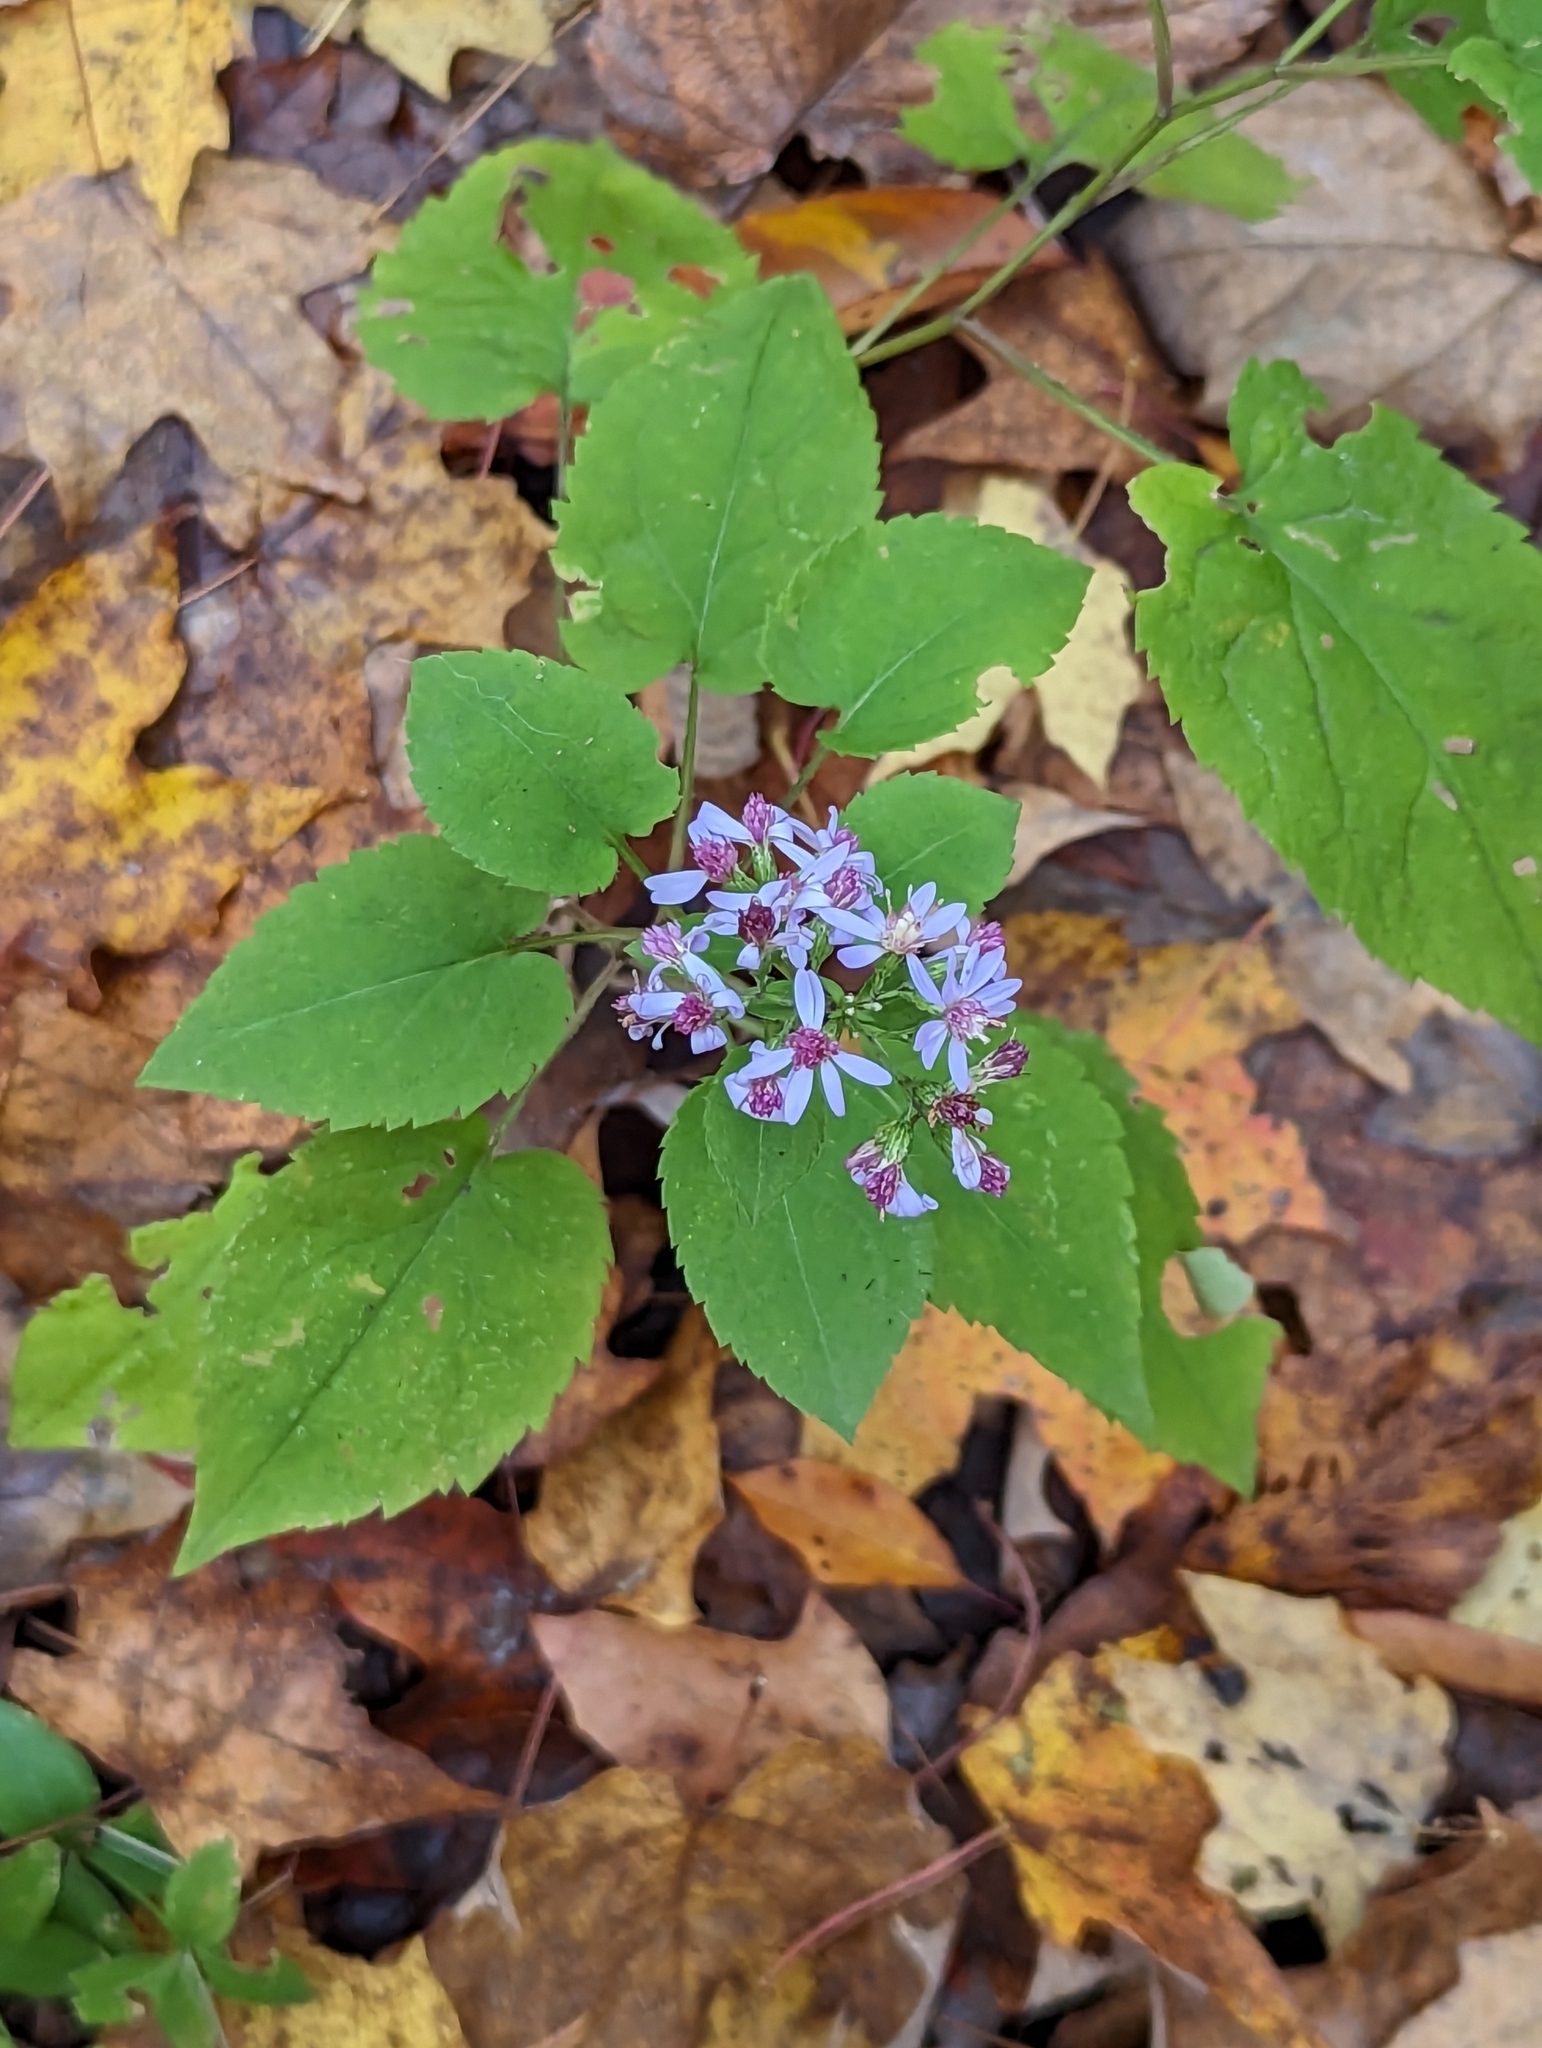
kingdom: Plantae
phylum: Tracheophyta
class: Magnoliopsida
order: Asterales
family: Asteraceae
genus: Symphyotrichum
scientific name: Symphyotrichum cordifolium
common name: Beeweed
